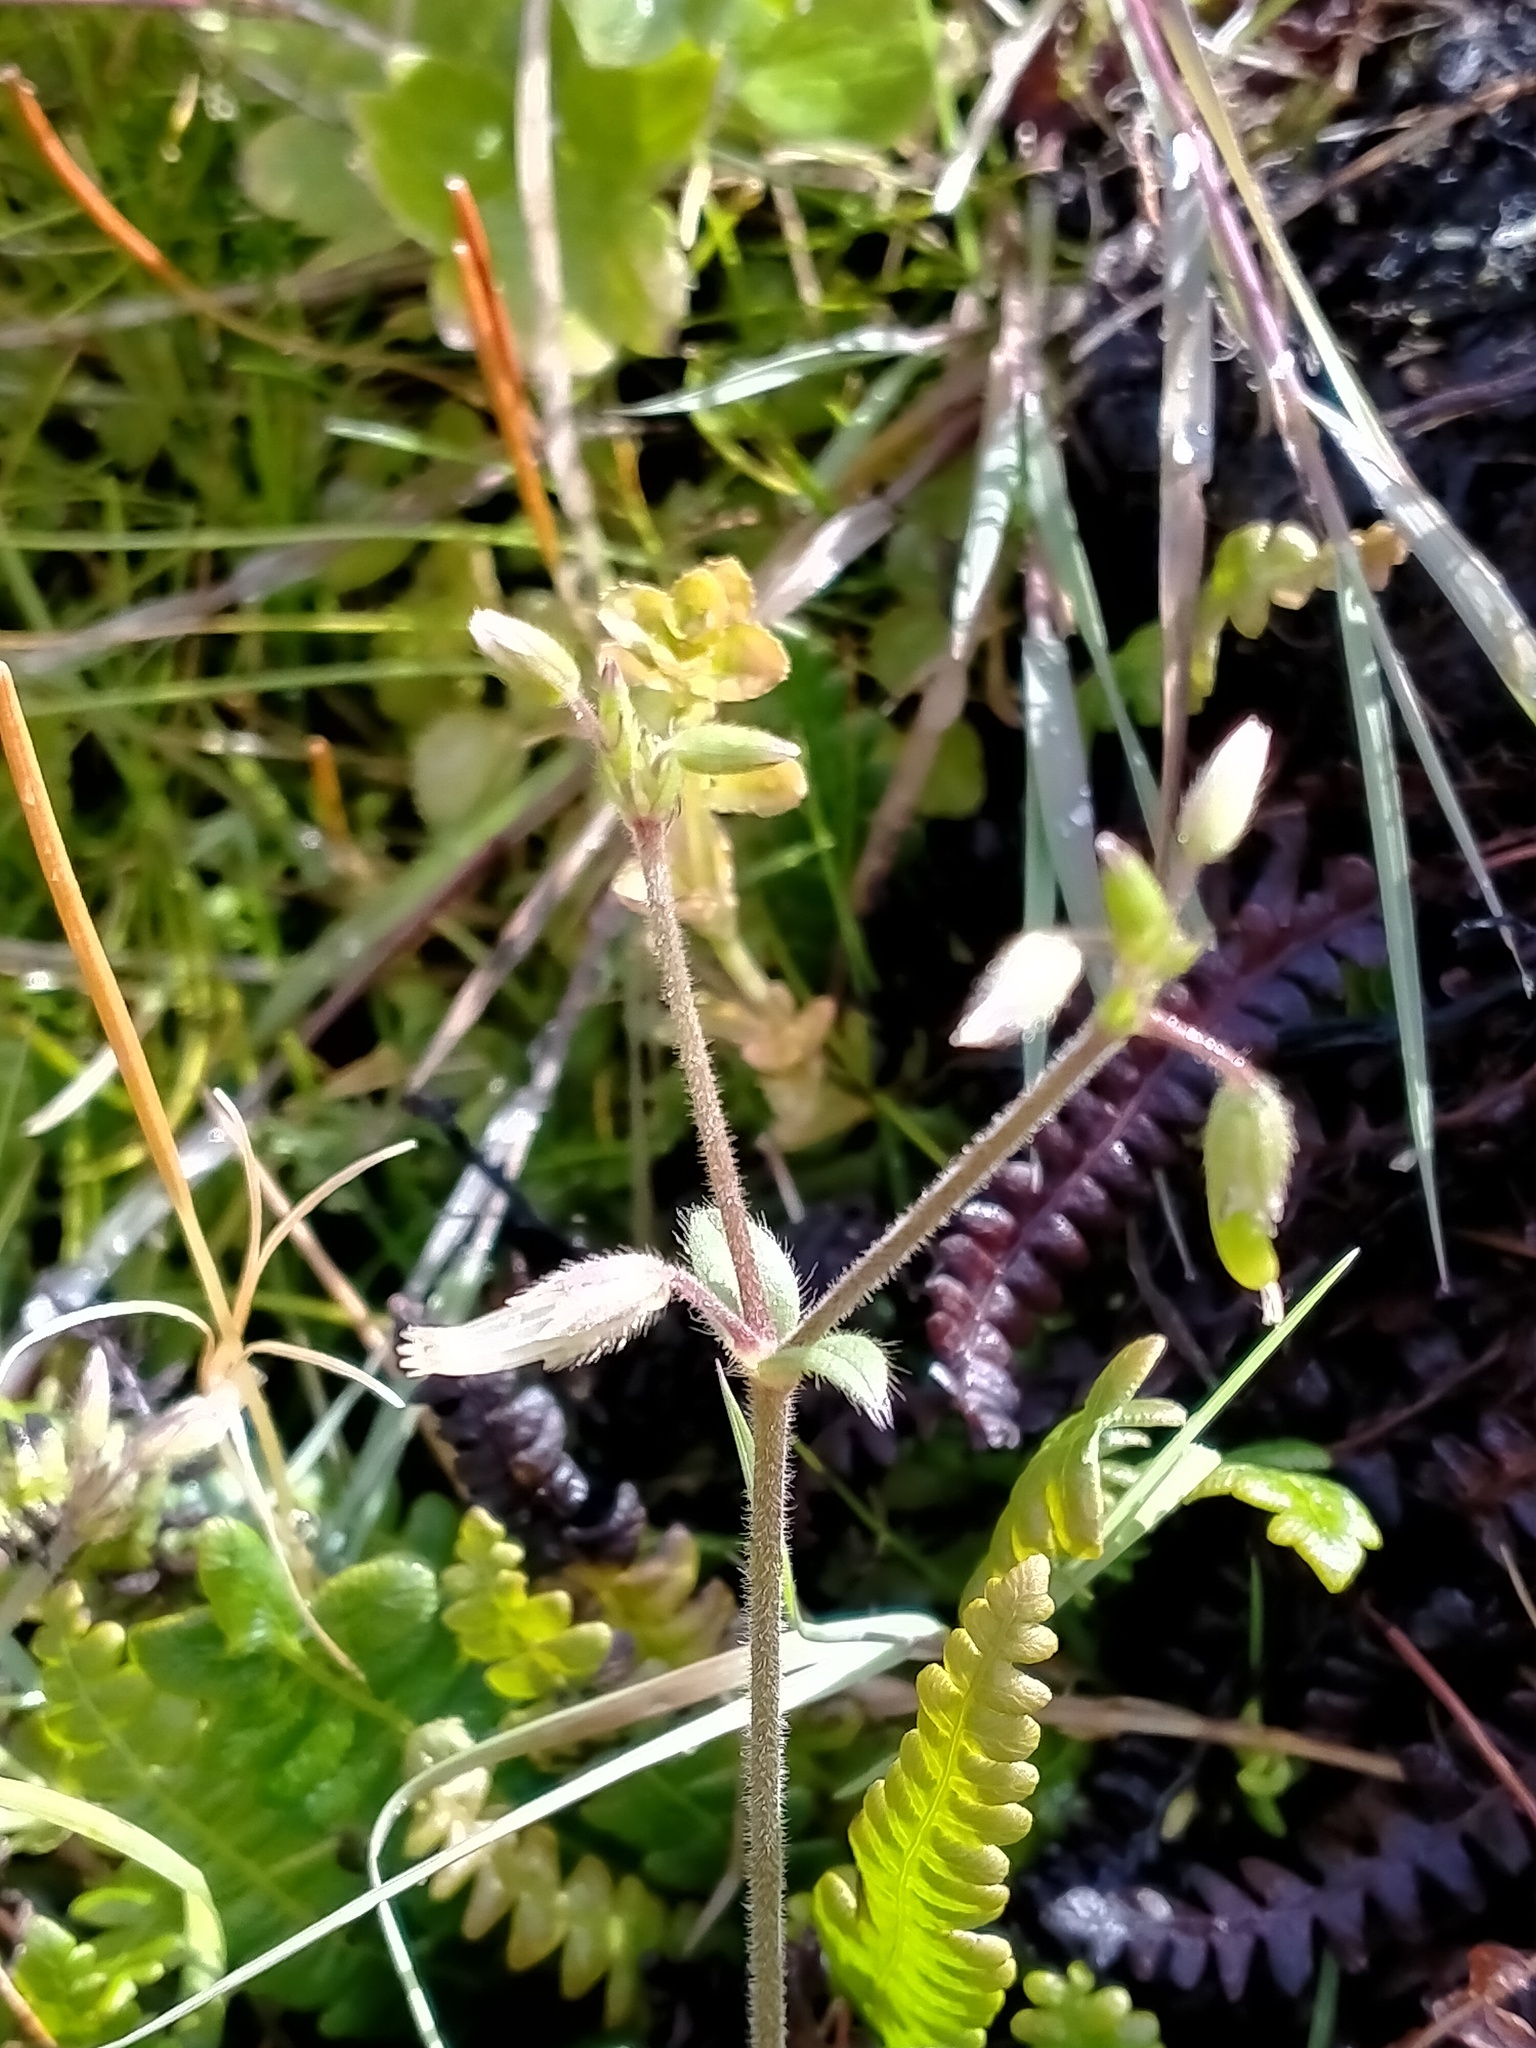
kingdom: Plantae
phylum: Tracheophyta
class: Magnoliopsida
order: Caryophyllales
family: Caryophyllaceae
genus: Cerastium
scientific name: Cerastium fontanum
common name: Common mouse-ear
